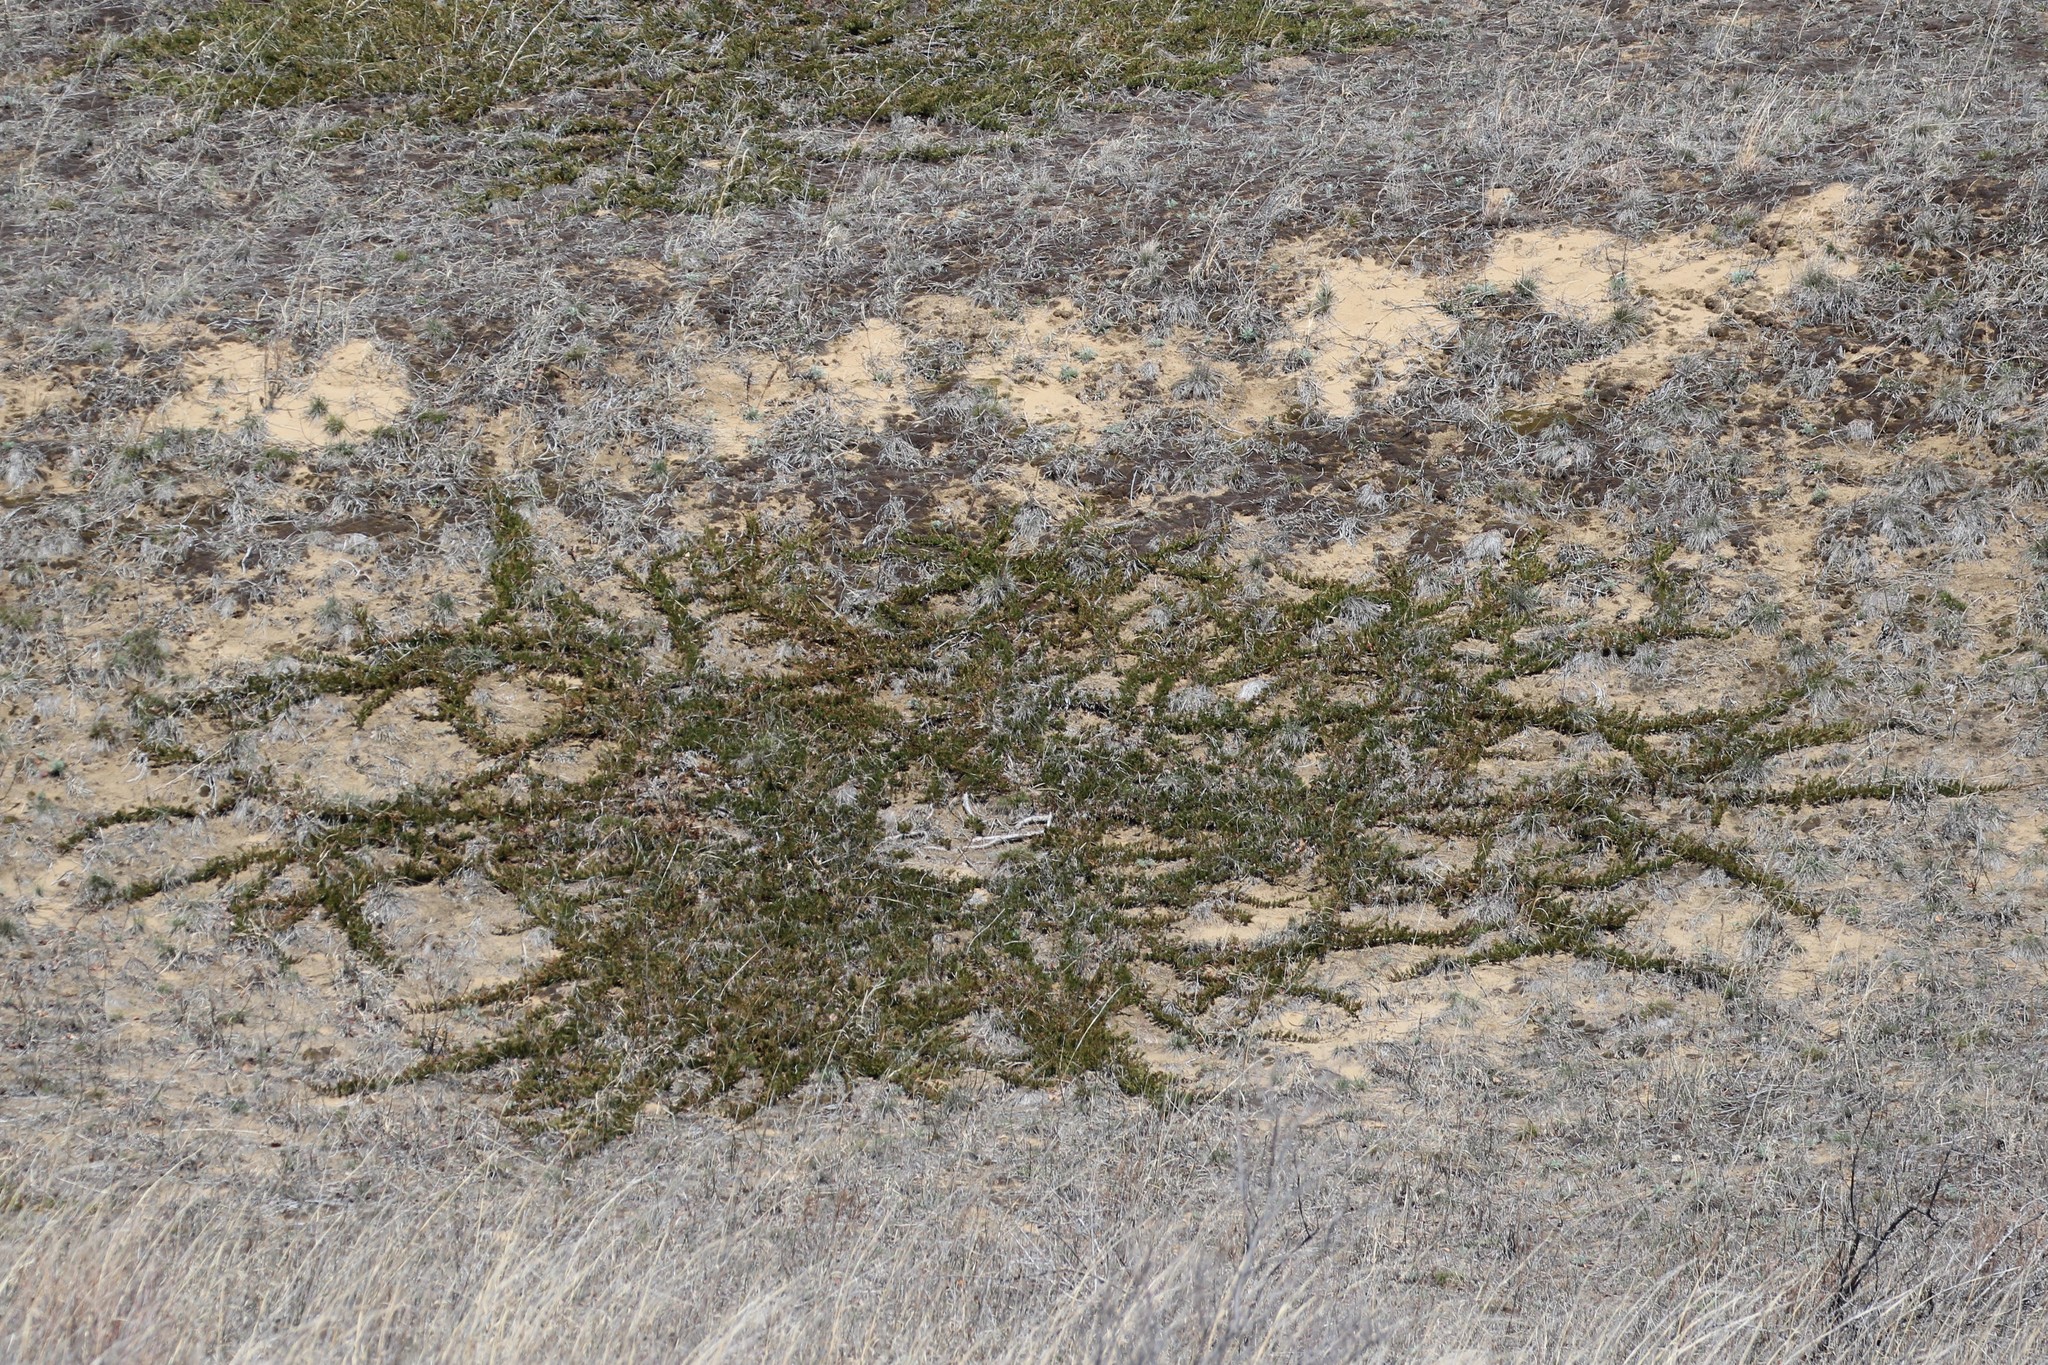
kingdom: Plantae
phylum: Tracheophyta
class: Pinopsida
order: Pinales
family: Cupressaceae
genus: Juniperus
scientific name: Juniperus horizontalis
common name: Creeping juniper
